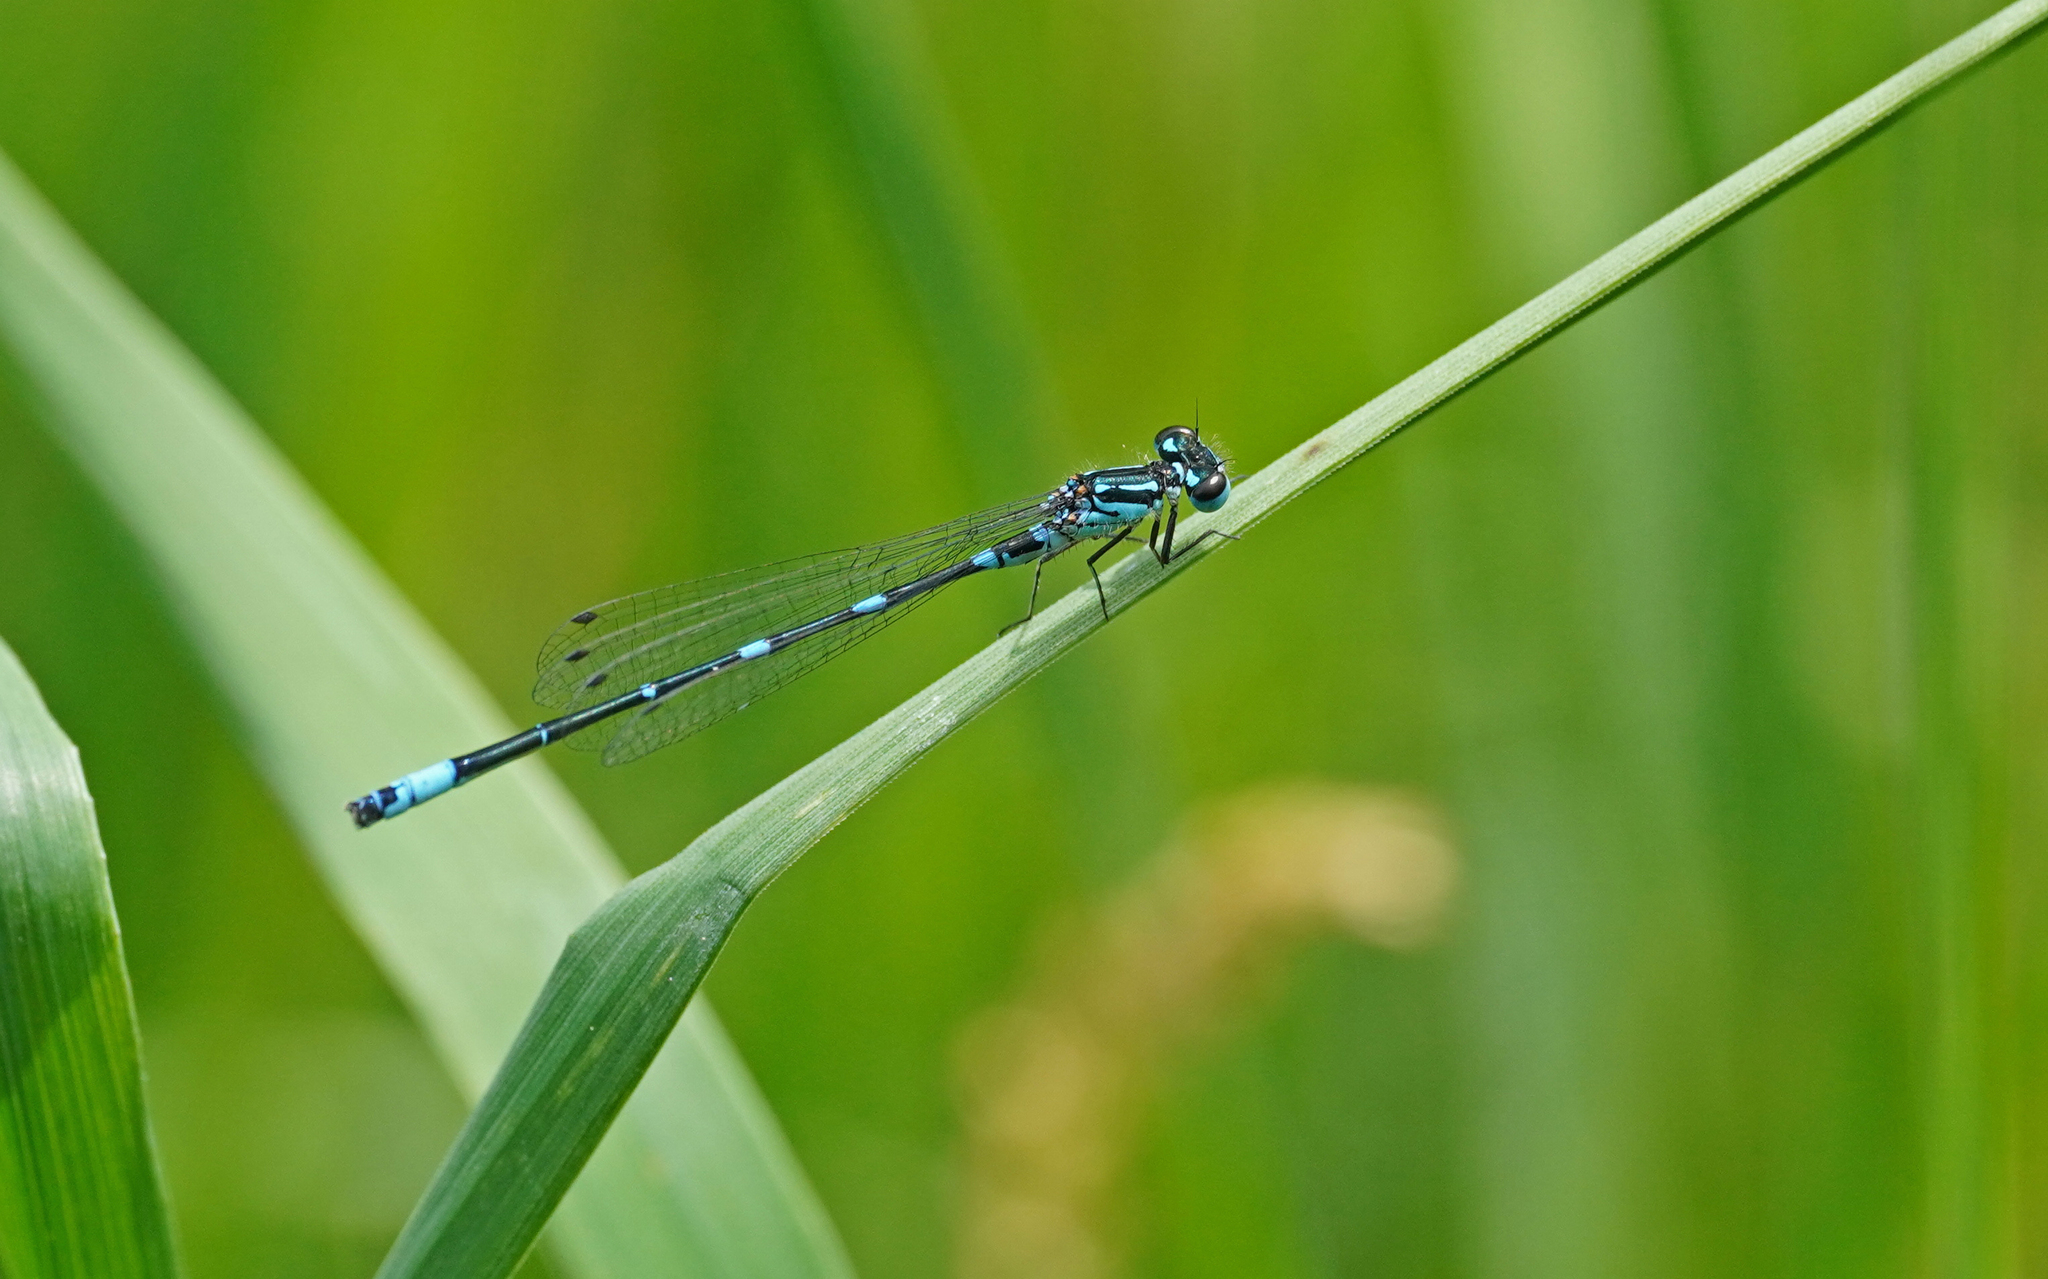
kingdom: Animalia
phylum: Arthropoda
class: Insecta
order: Odonata
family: Coenagrionidae
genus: Coenagrion
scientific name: Coenagrion pulchellum
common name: Variable bluet
